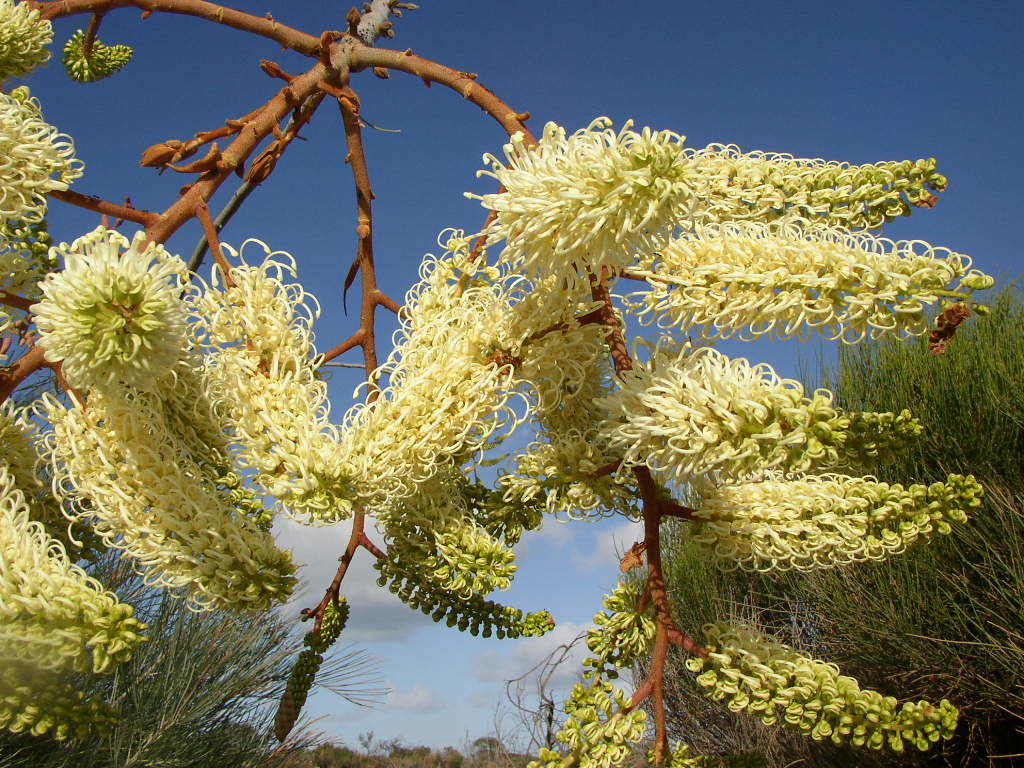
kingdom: Plantae
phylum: Tracheophyta
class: Magnoliopsida
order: Proteales
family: Proteaceae
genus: Grevillea
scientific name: Grevillea leucopteris
